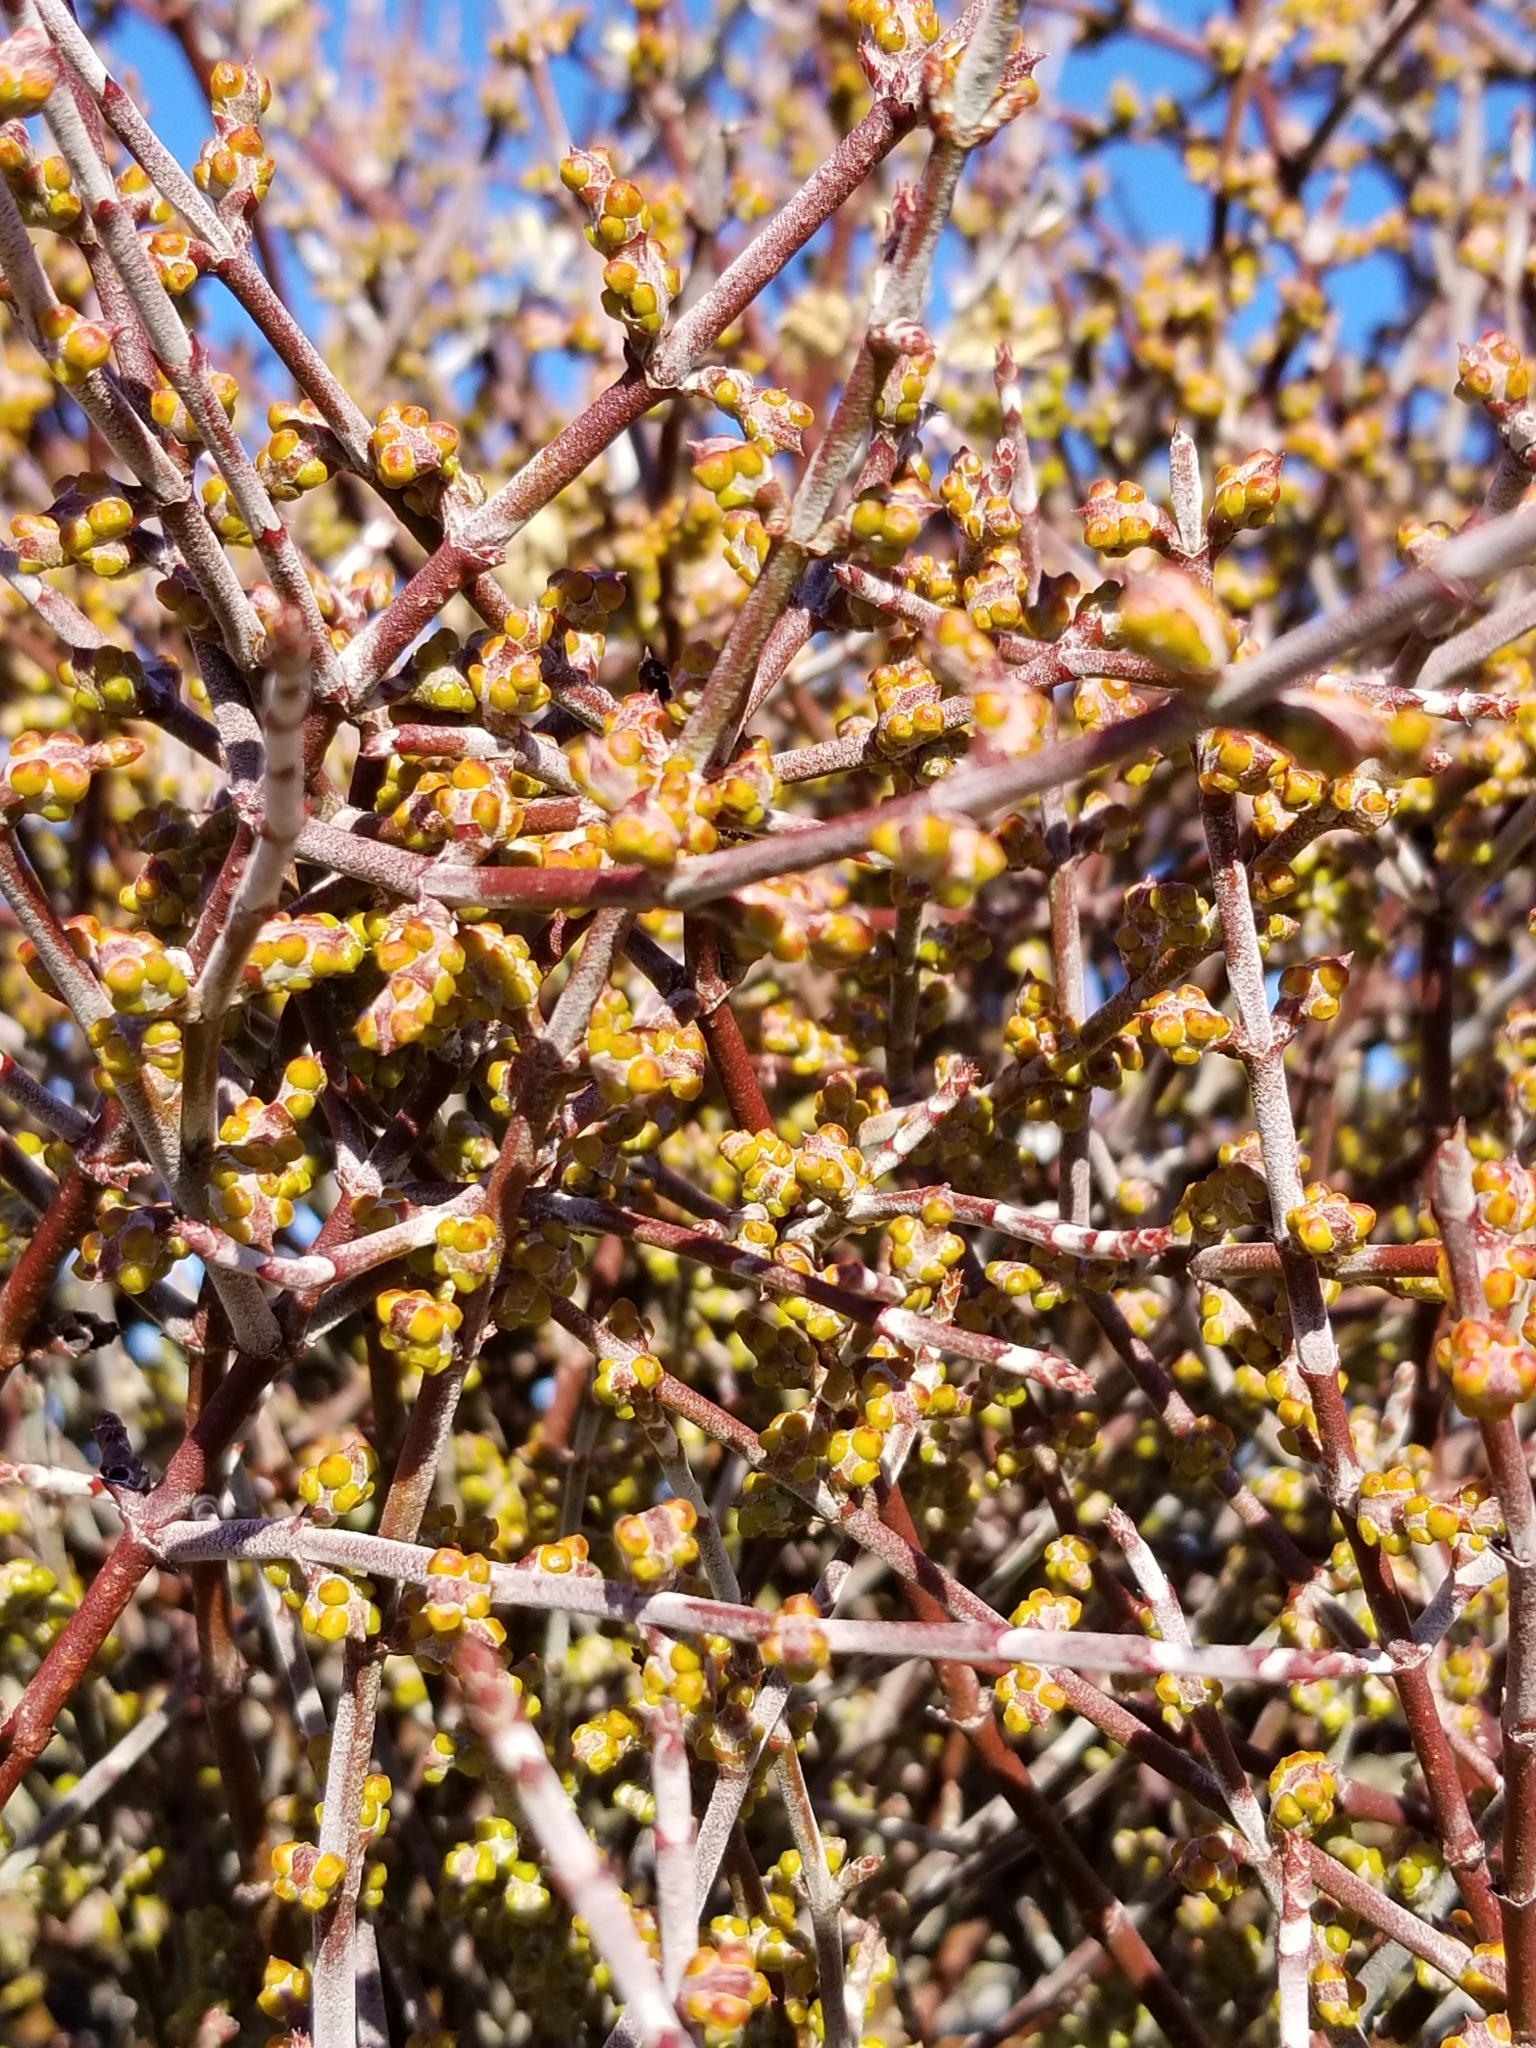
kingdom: Plantae
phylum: Tracheophyta
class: Magnoliopsida
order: Santalales
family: Viscaceae
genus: Phoradendron
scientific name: Phoradendron californicum
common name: Acacia mistletoe
